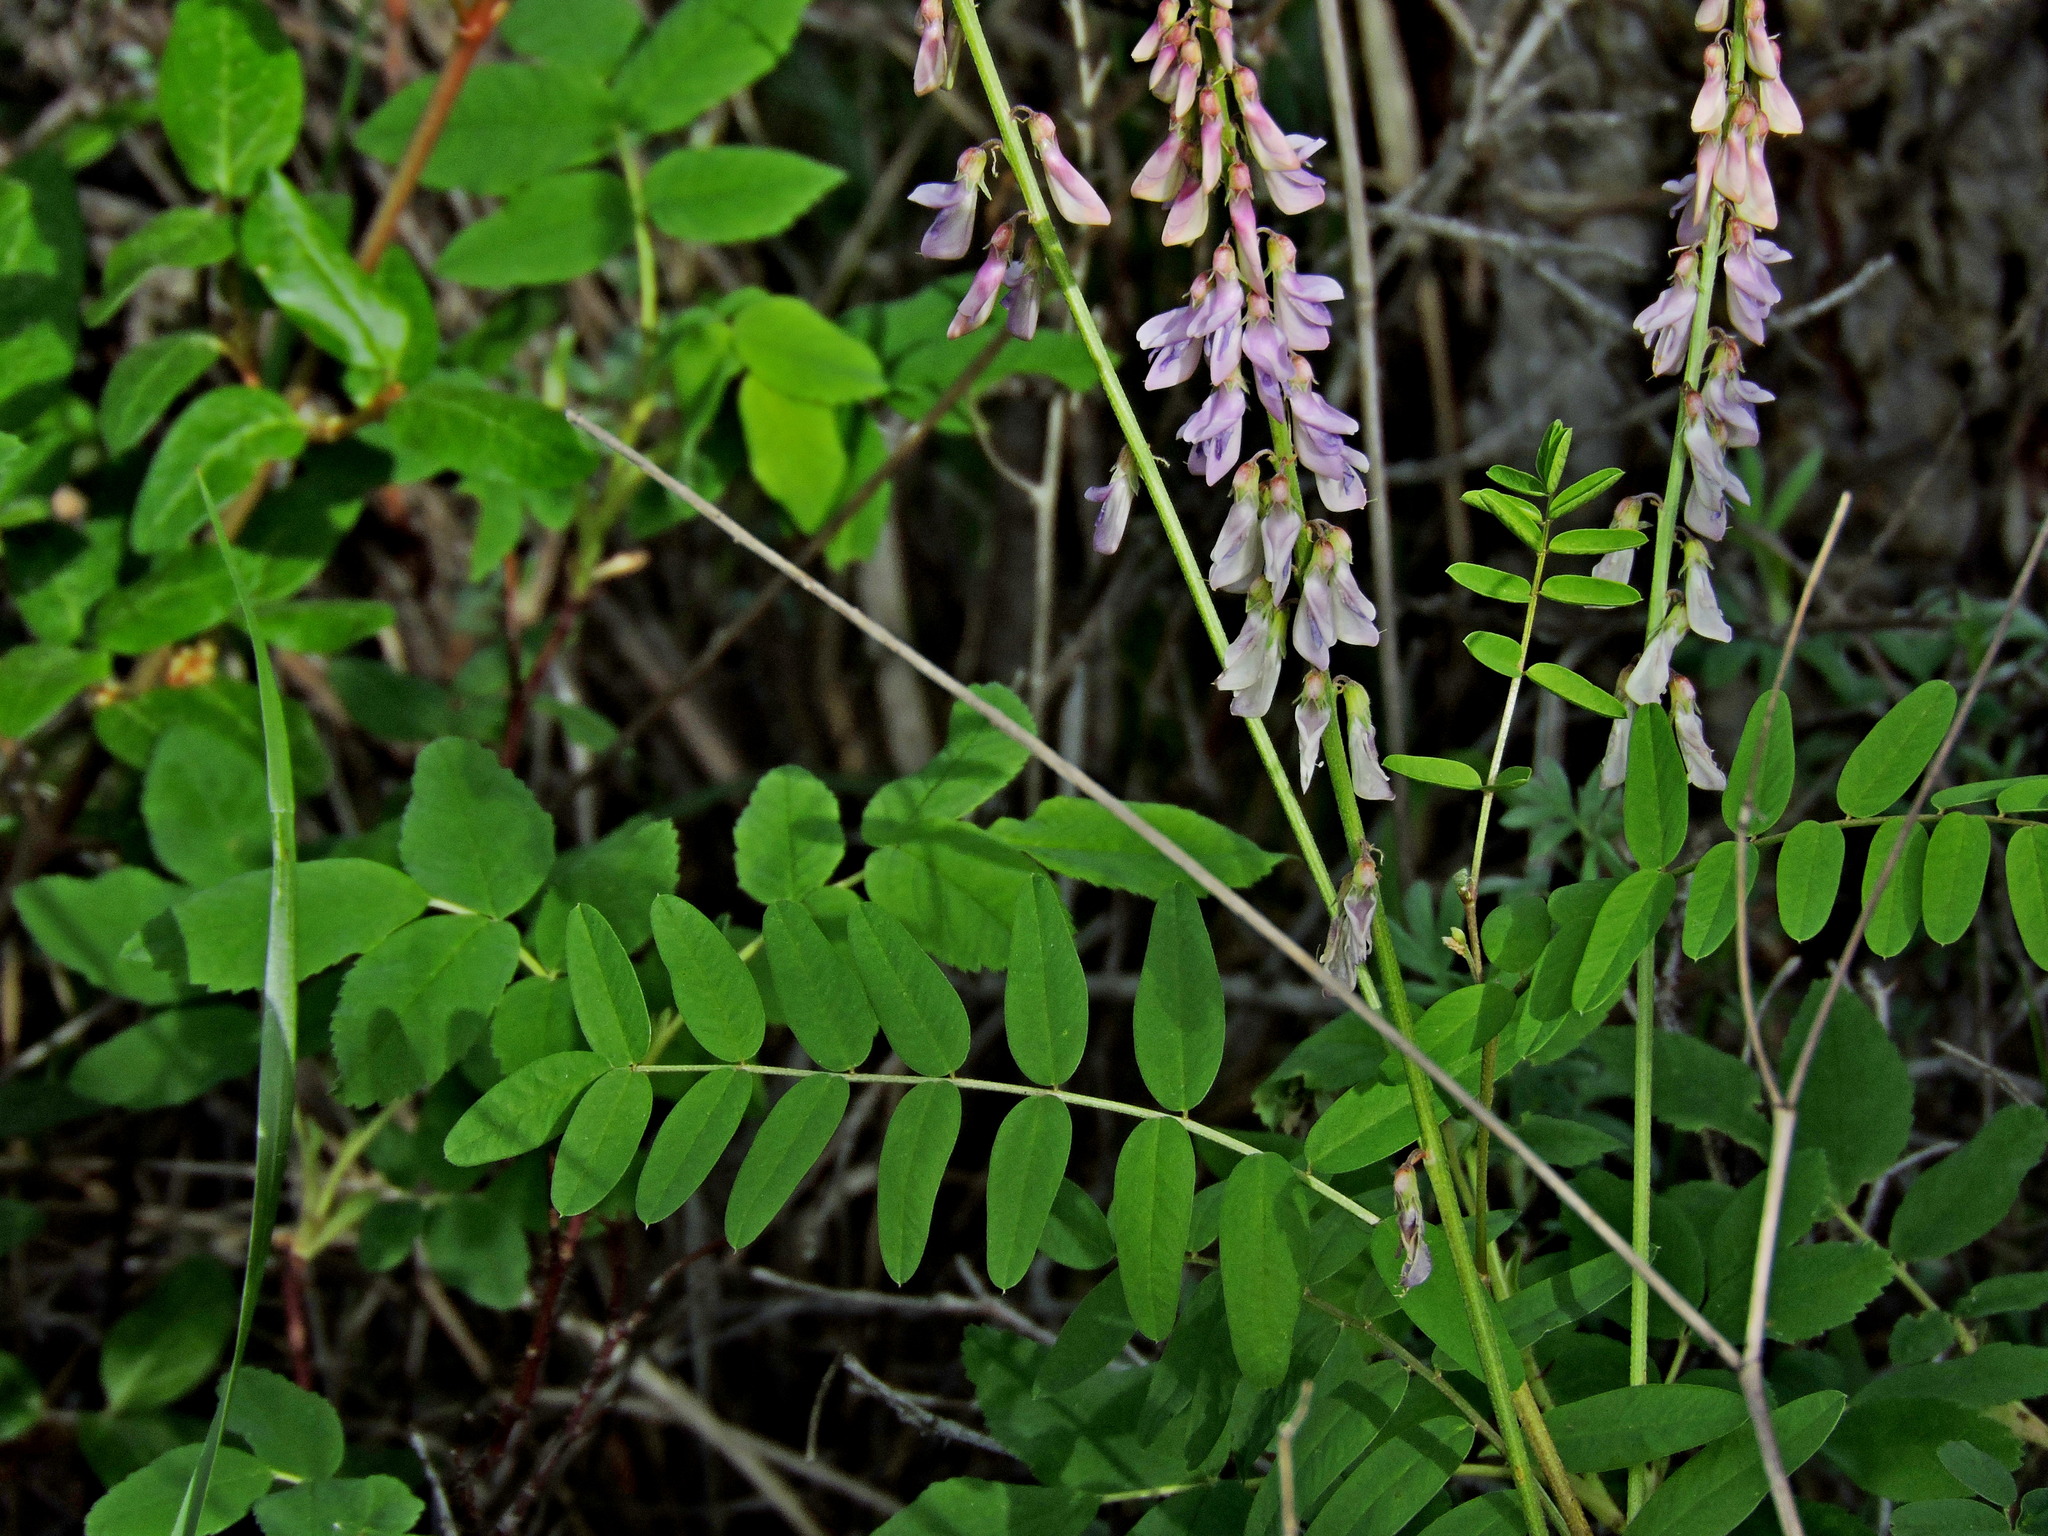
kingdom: Plantae
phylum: Tracheophyta
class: Magnoliopsida
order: Fabales
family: Fabaceae
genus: Hedysarum
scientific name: Hedysarum
